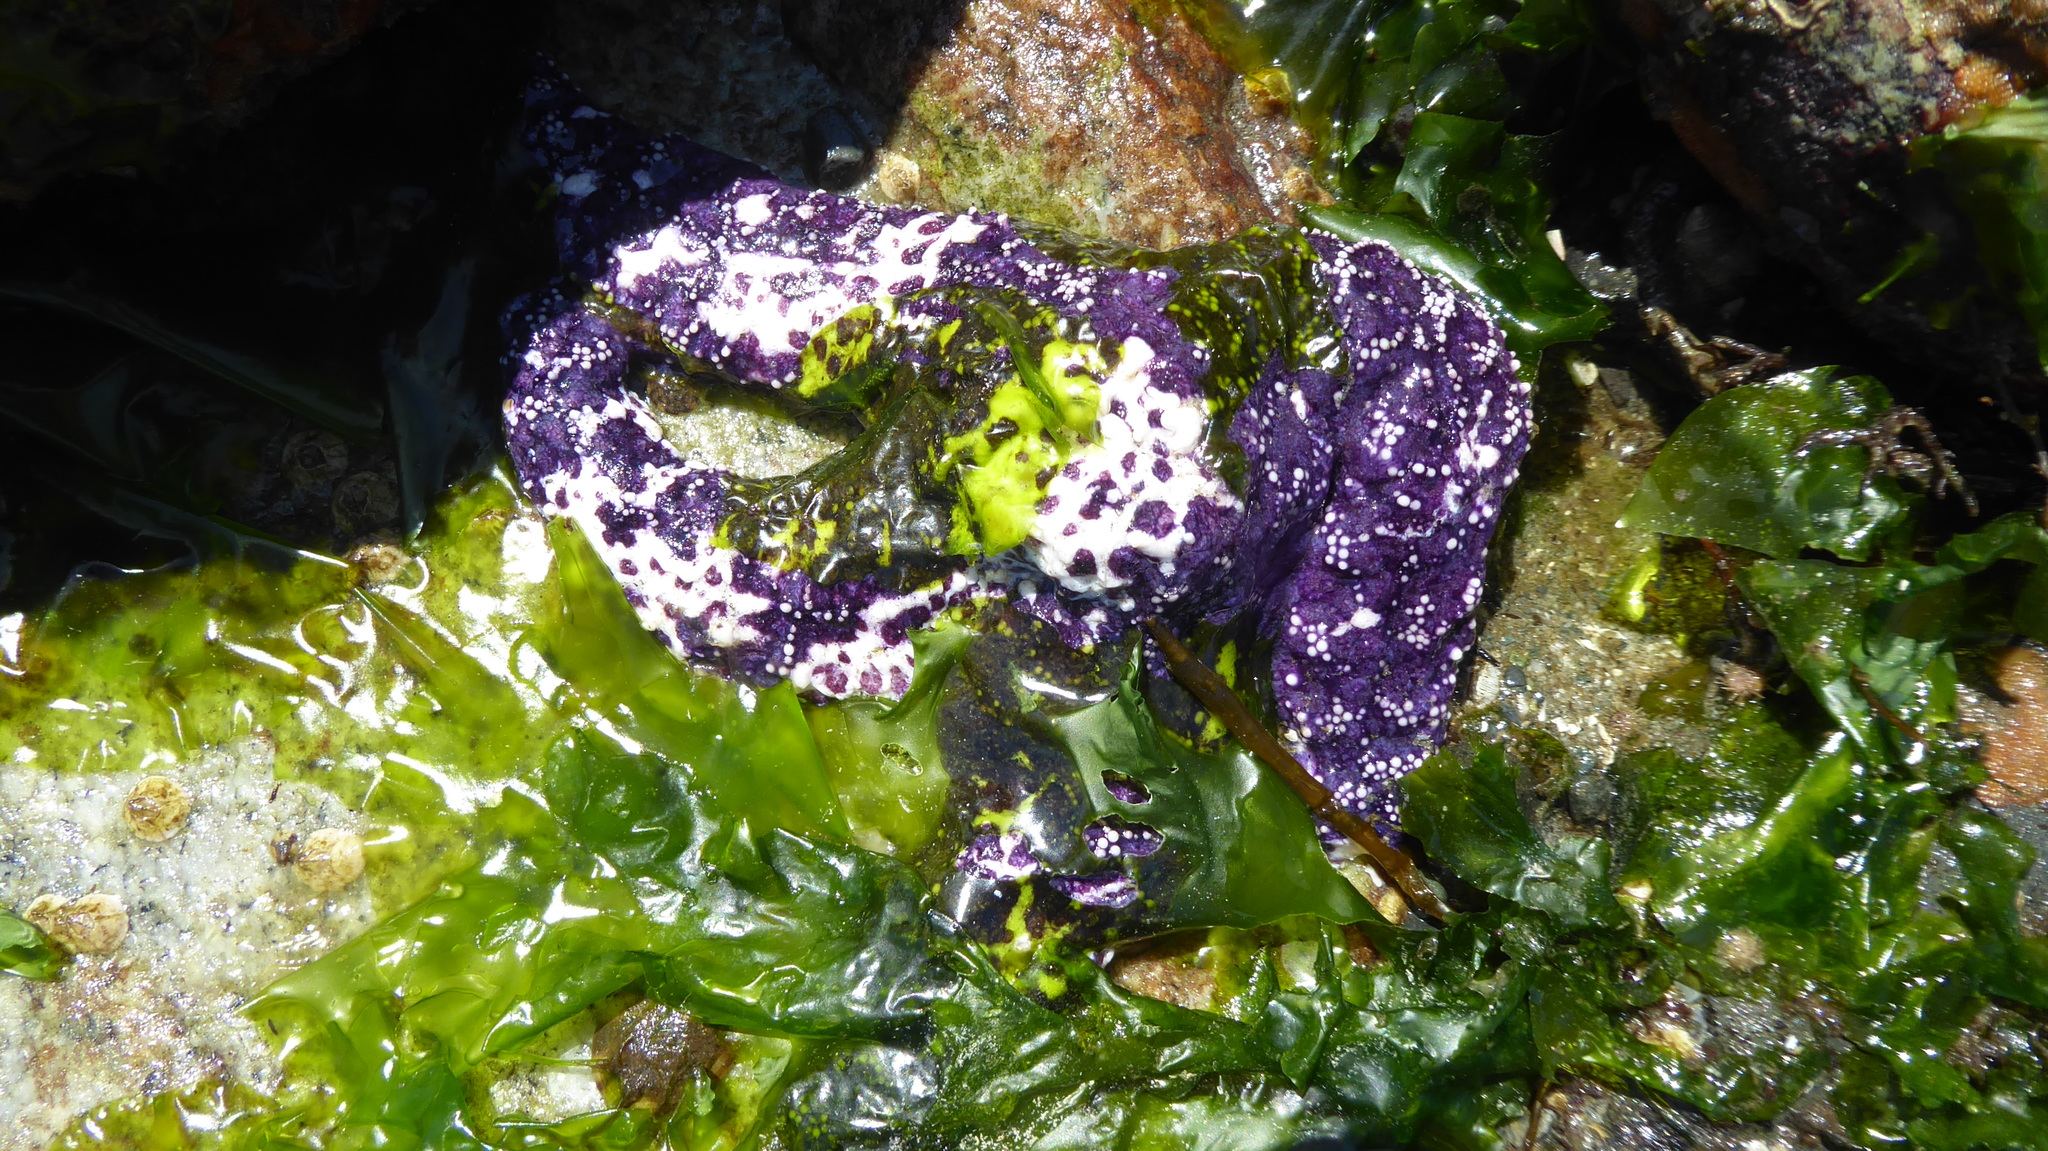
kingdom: Animalia
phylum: Echinodermata
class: Asteroidea
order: Forcipulatida
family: Asteriidae
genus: Pisaster
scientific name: Pisaster ochraceus
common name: Ochre stars
